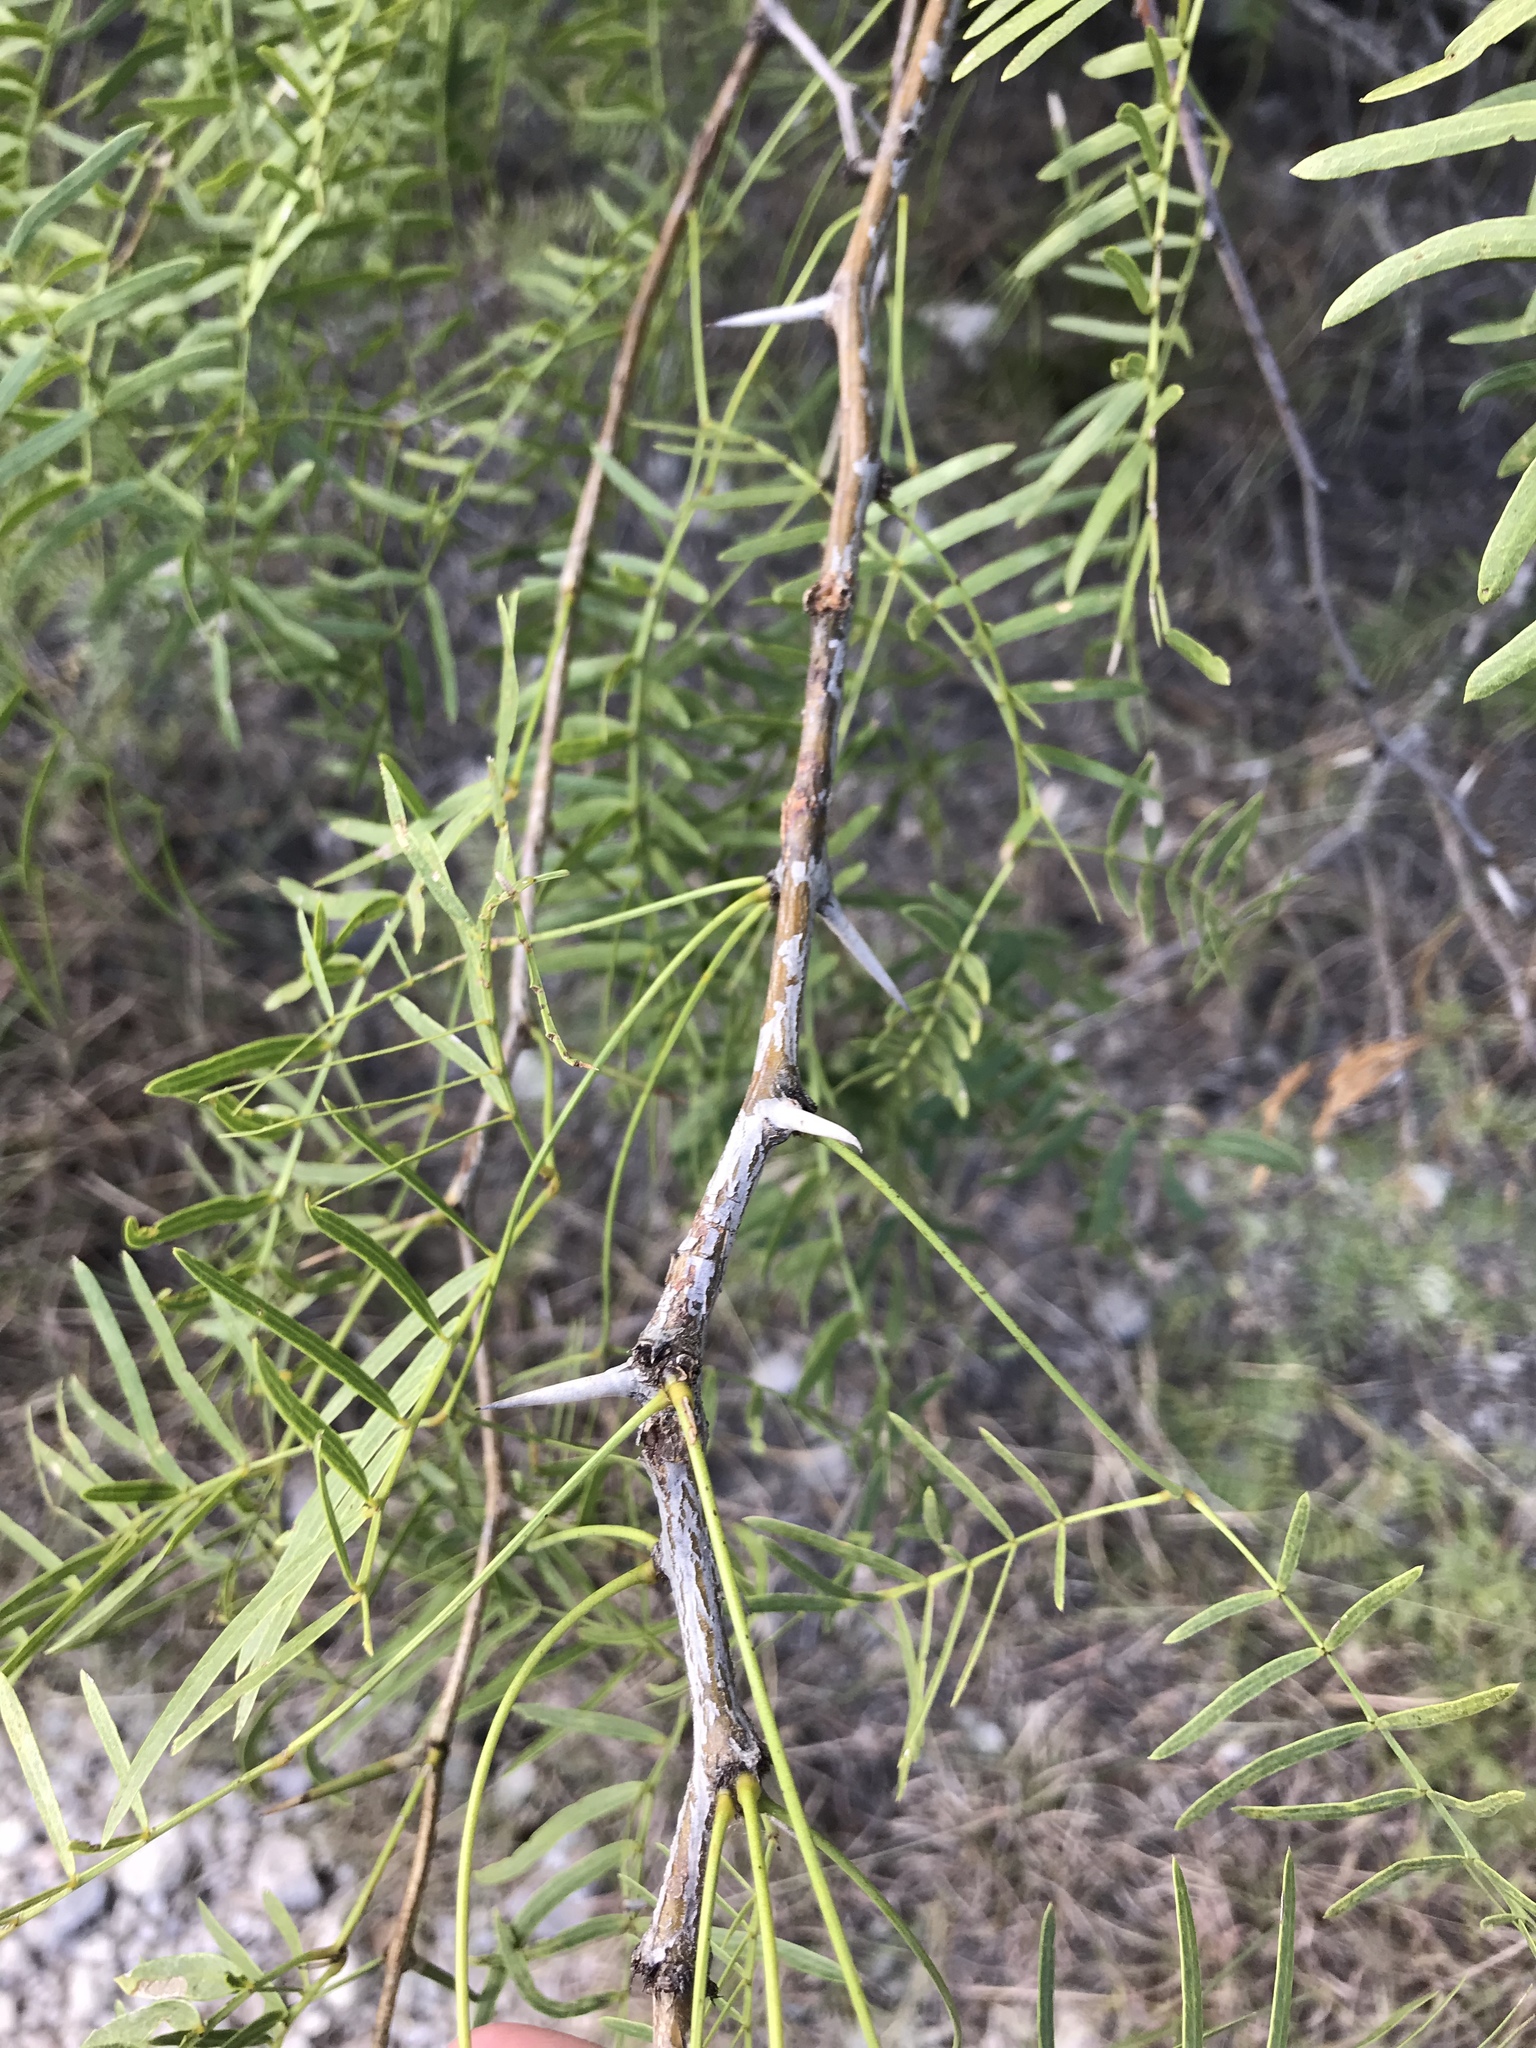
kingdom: Plantae
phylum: Tracheophyta
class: Magnoliopsida
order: Fabales
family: Fabaceae
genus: Prosopis
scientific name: Prosopis glandulosa
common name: Honey mesquite
